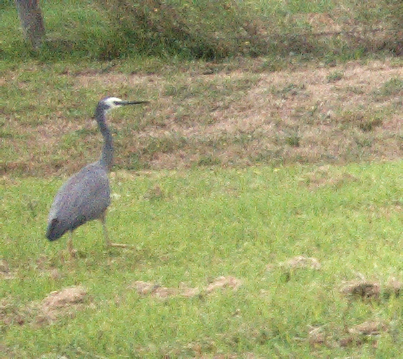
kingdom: Animalia
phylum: Chordata
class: Aves
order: Pelecaniformes
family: Ardeidae
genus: Egretta
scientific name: Egretta novaehollandiae
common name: White-faced heron
